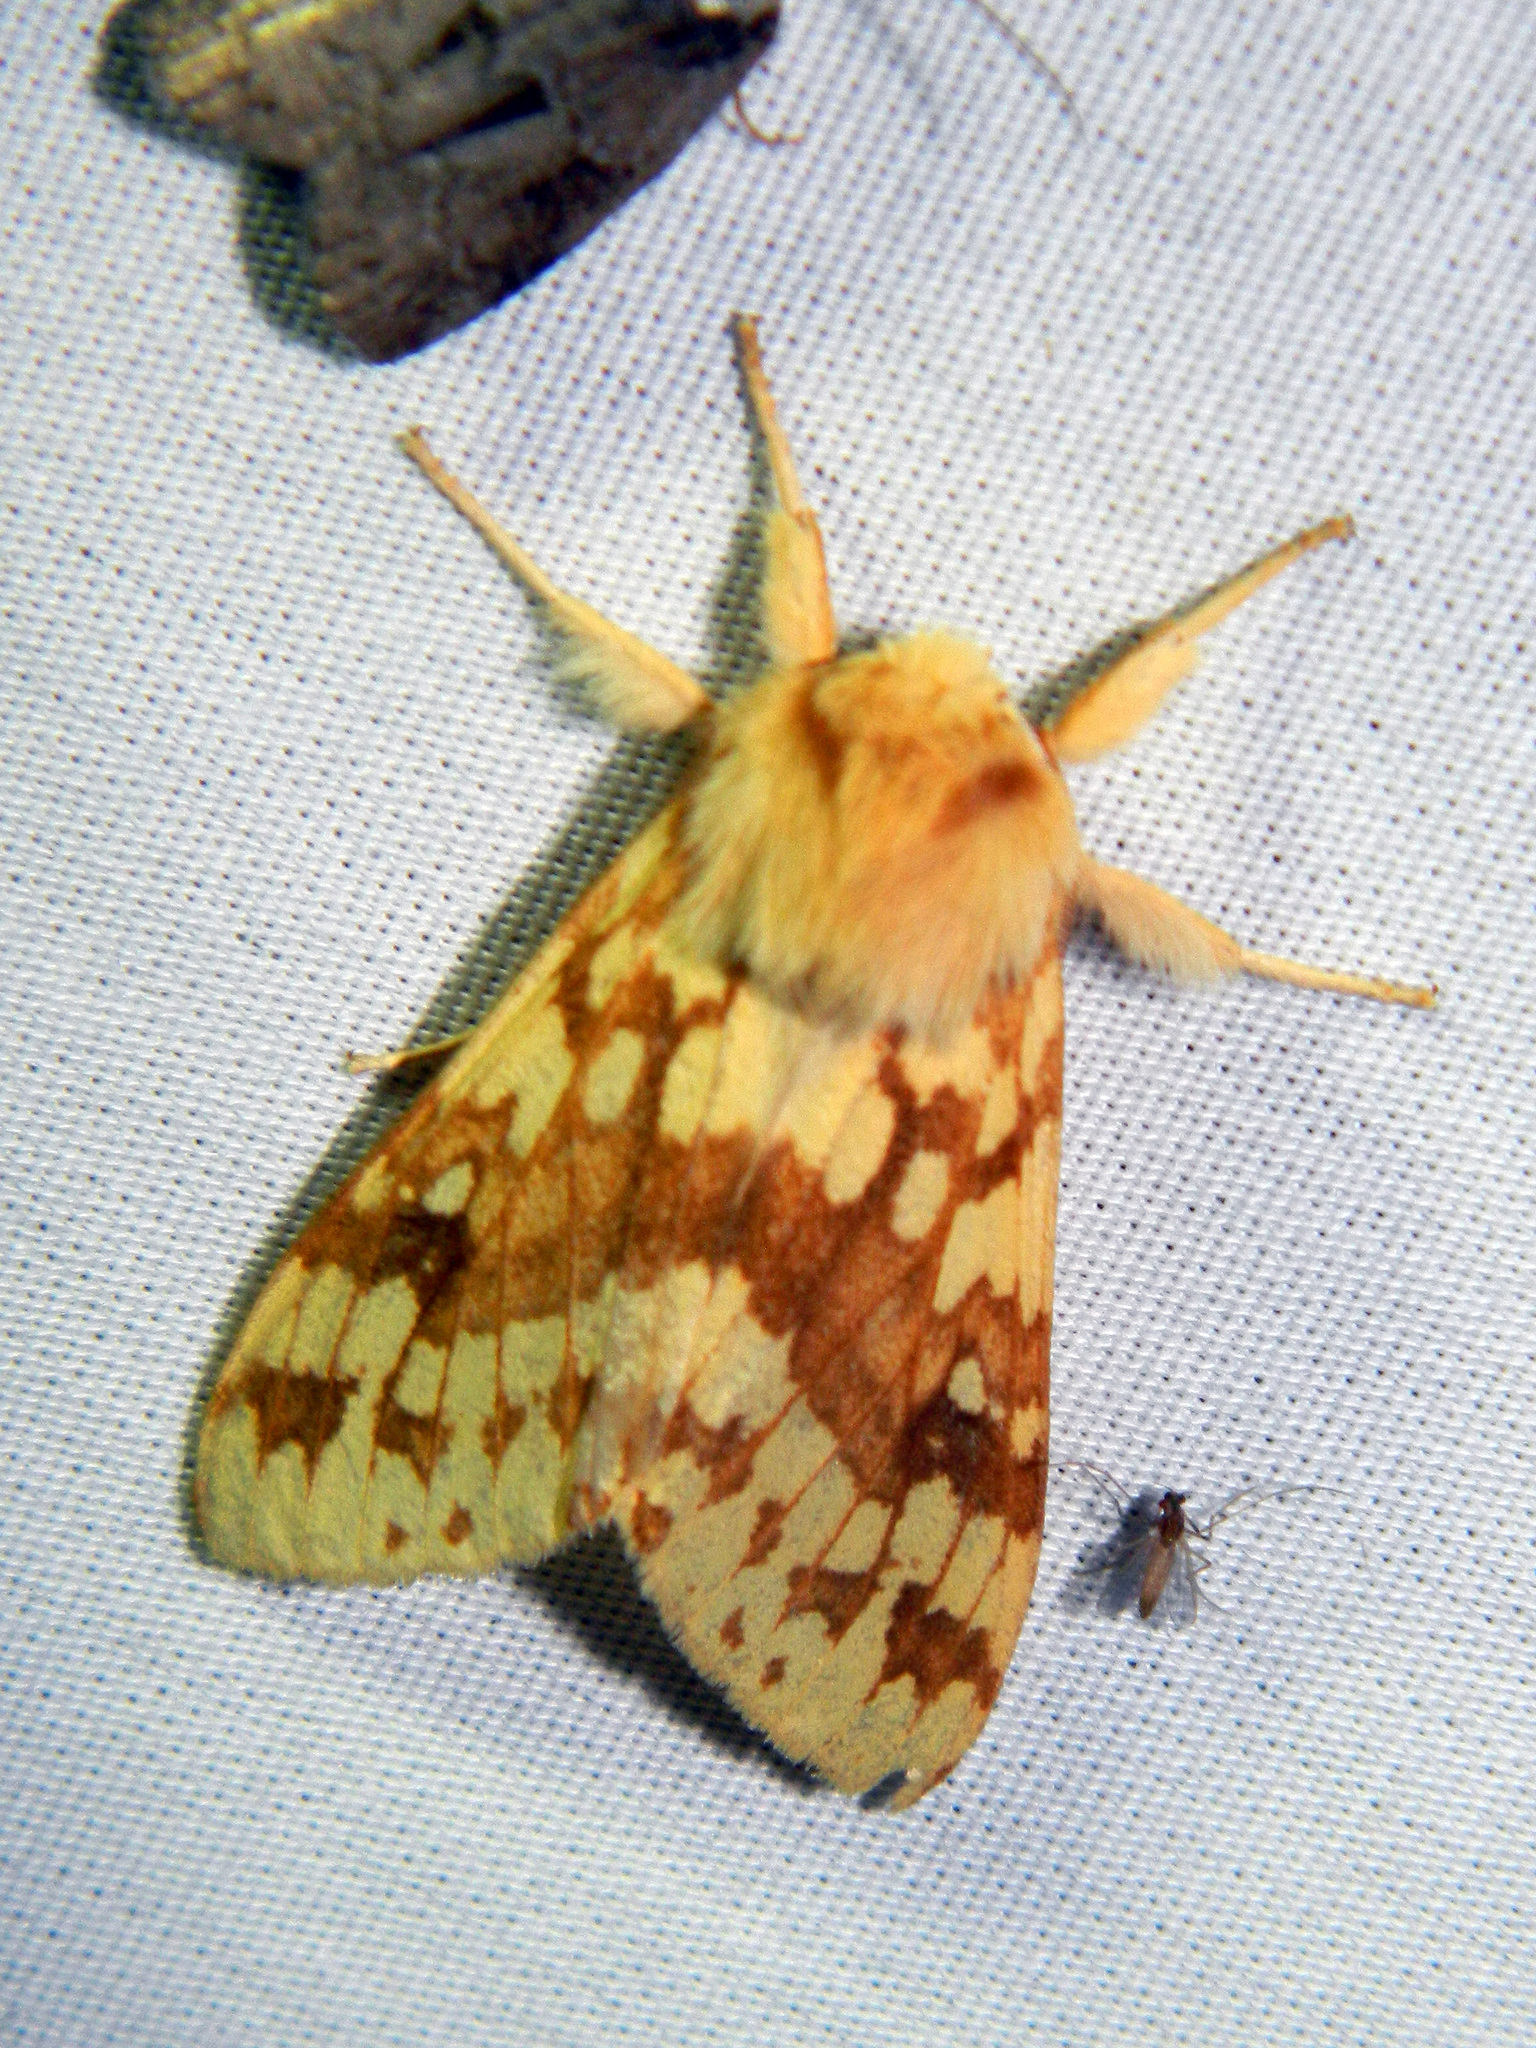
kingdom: Animalia
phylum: Arthropoda
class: Insecta
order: Lepidoptera
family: Erebidae
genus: Lophocampa
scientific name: Lophocampa maculata
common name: Spotted tussock moth
